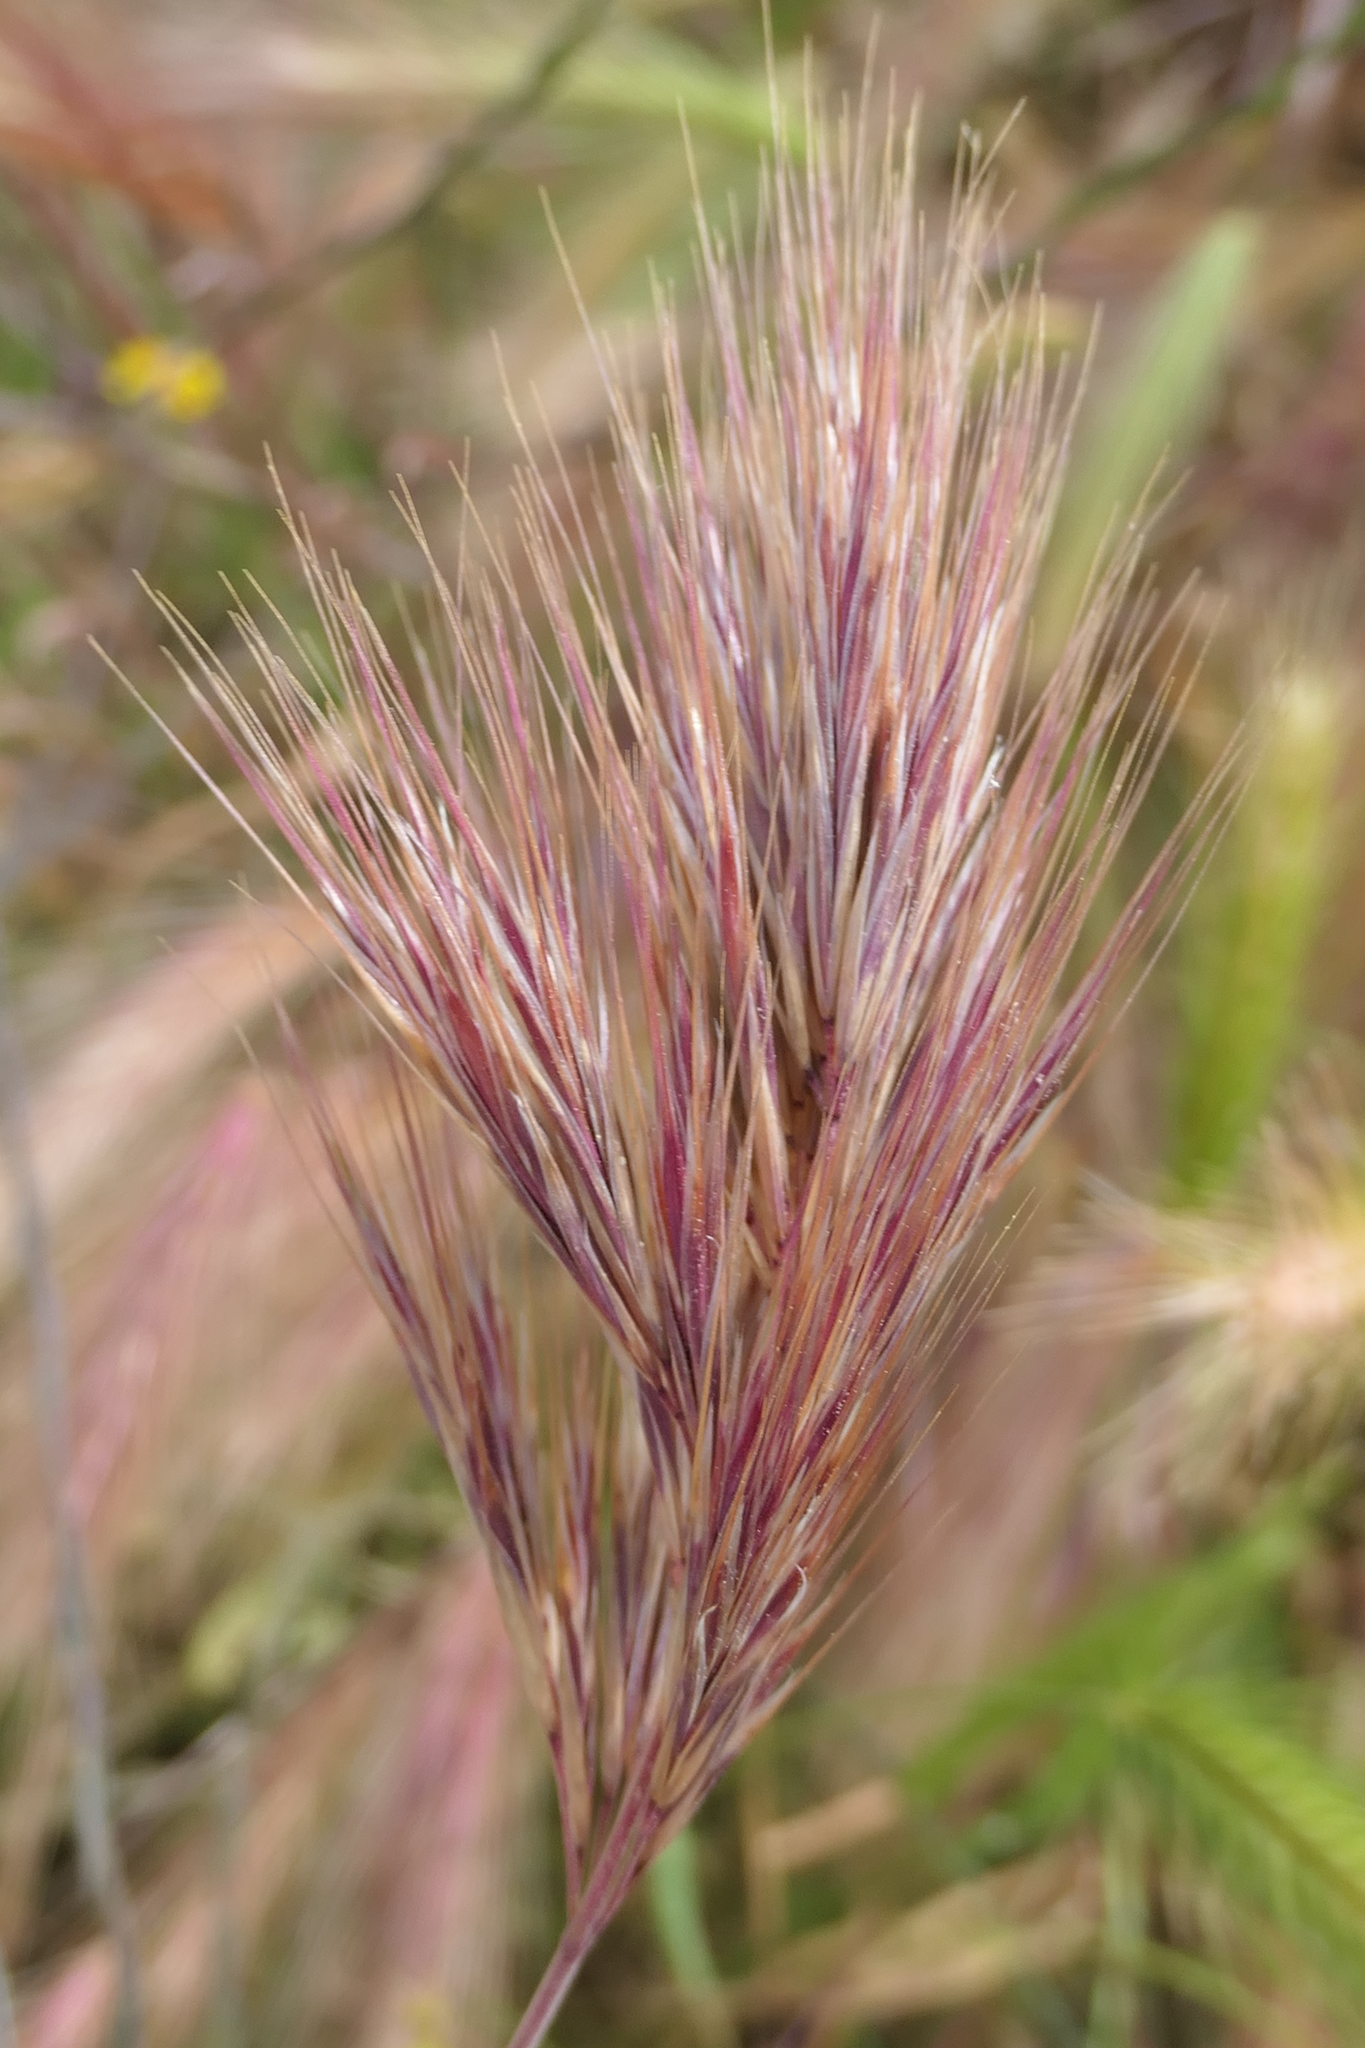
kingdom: Plantae
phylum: Tracheophyta
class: Liliopsida
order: Poales
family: Poaceae
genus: Bromus
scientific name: Bromus rubens
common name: Red brome
